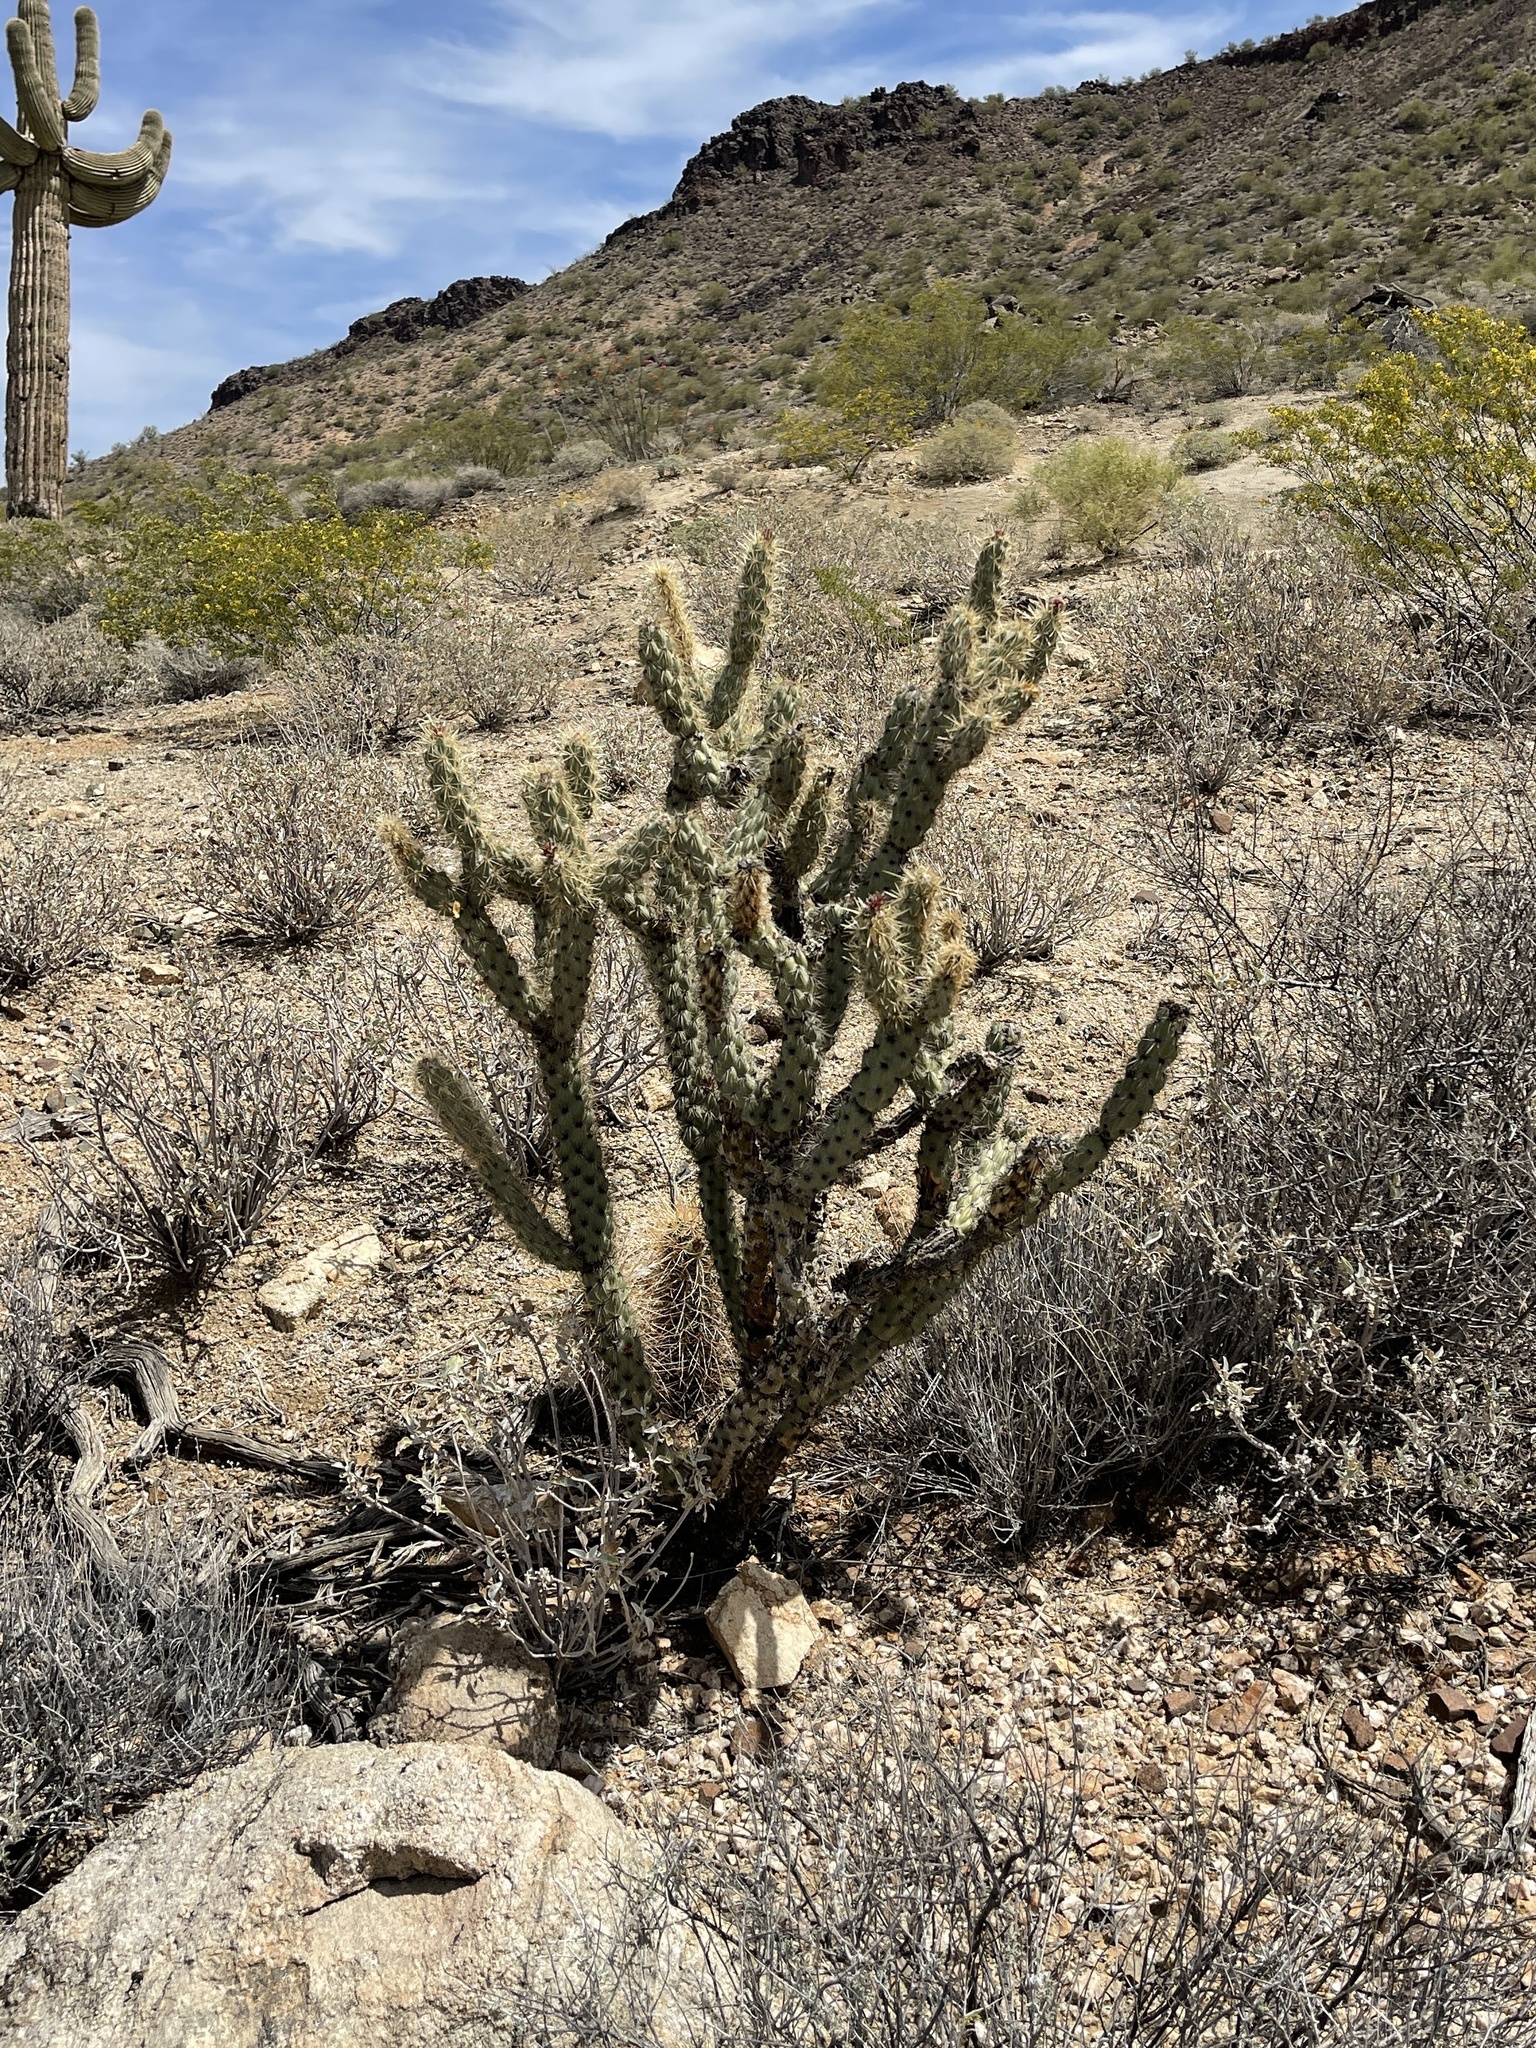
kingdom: Plantae
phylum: Tracheophyta
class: Magnoliopsida
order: Caryophyllales
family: Cactaceae
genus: Cylindropuntia
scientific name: Cylindropuntia acanthocarpa
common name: Buckhorn cholla
